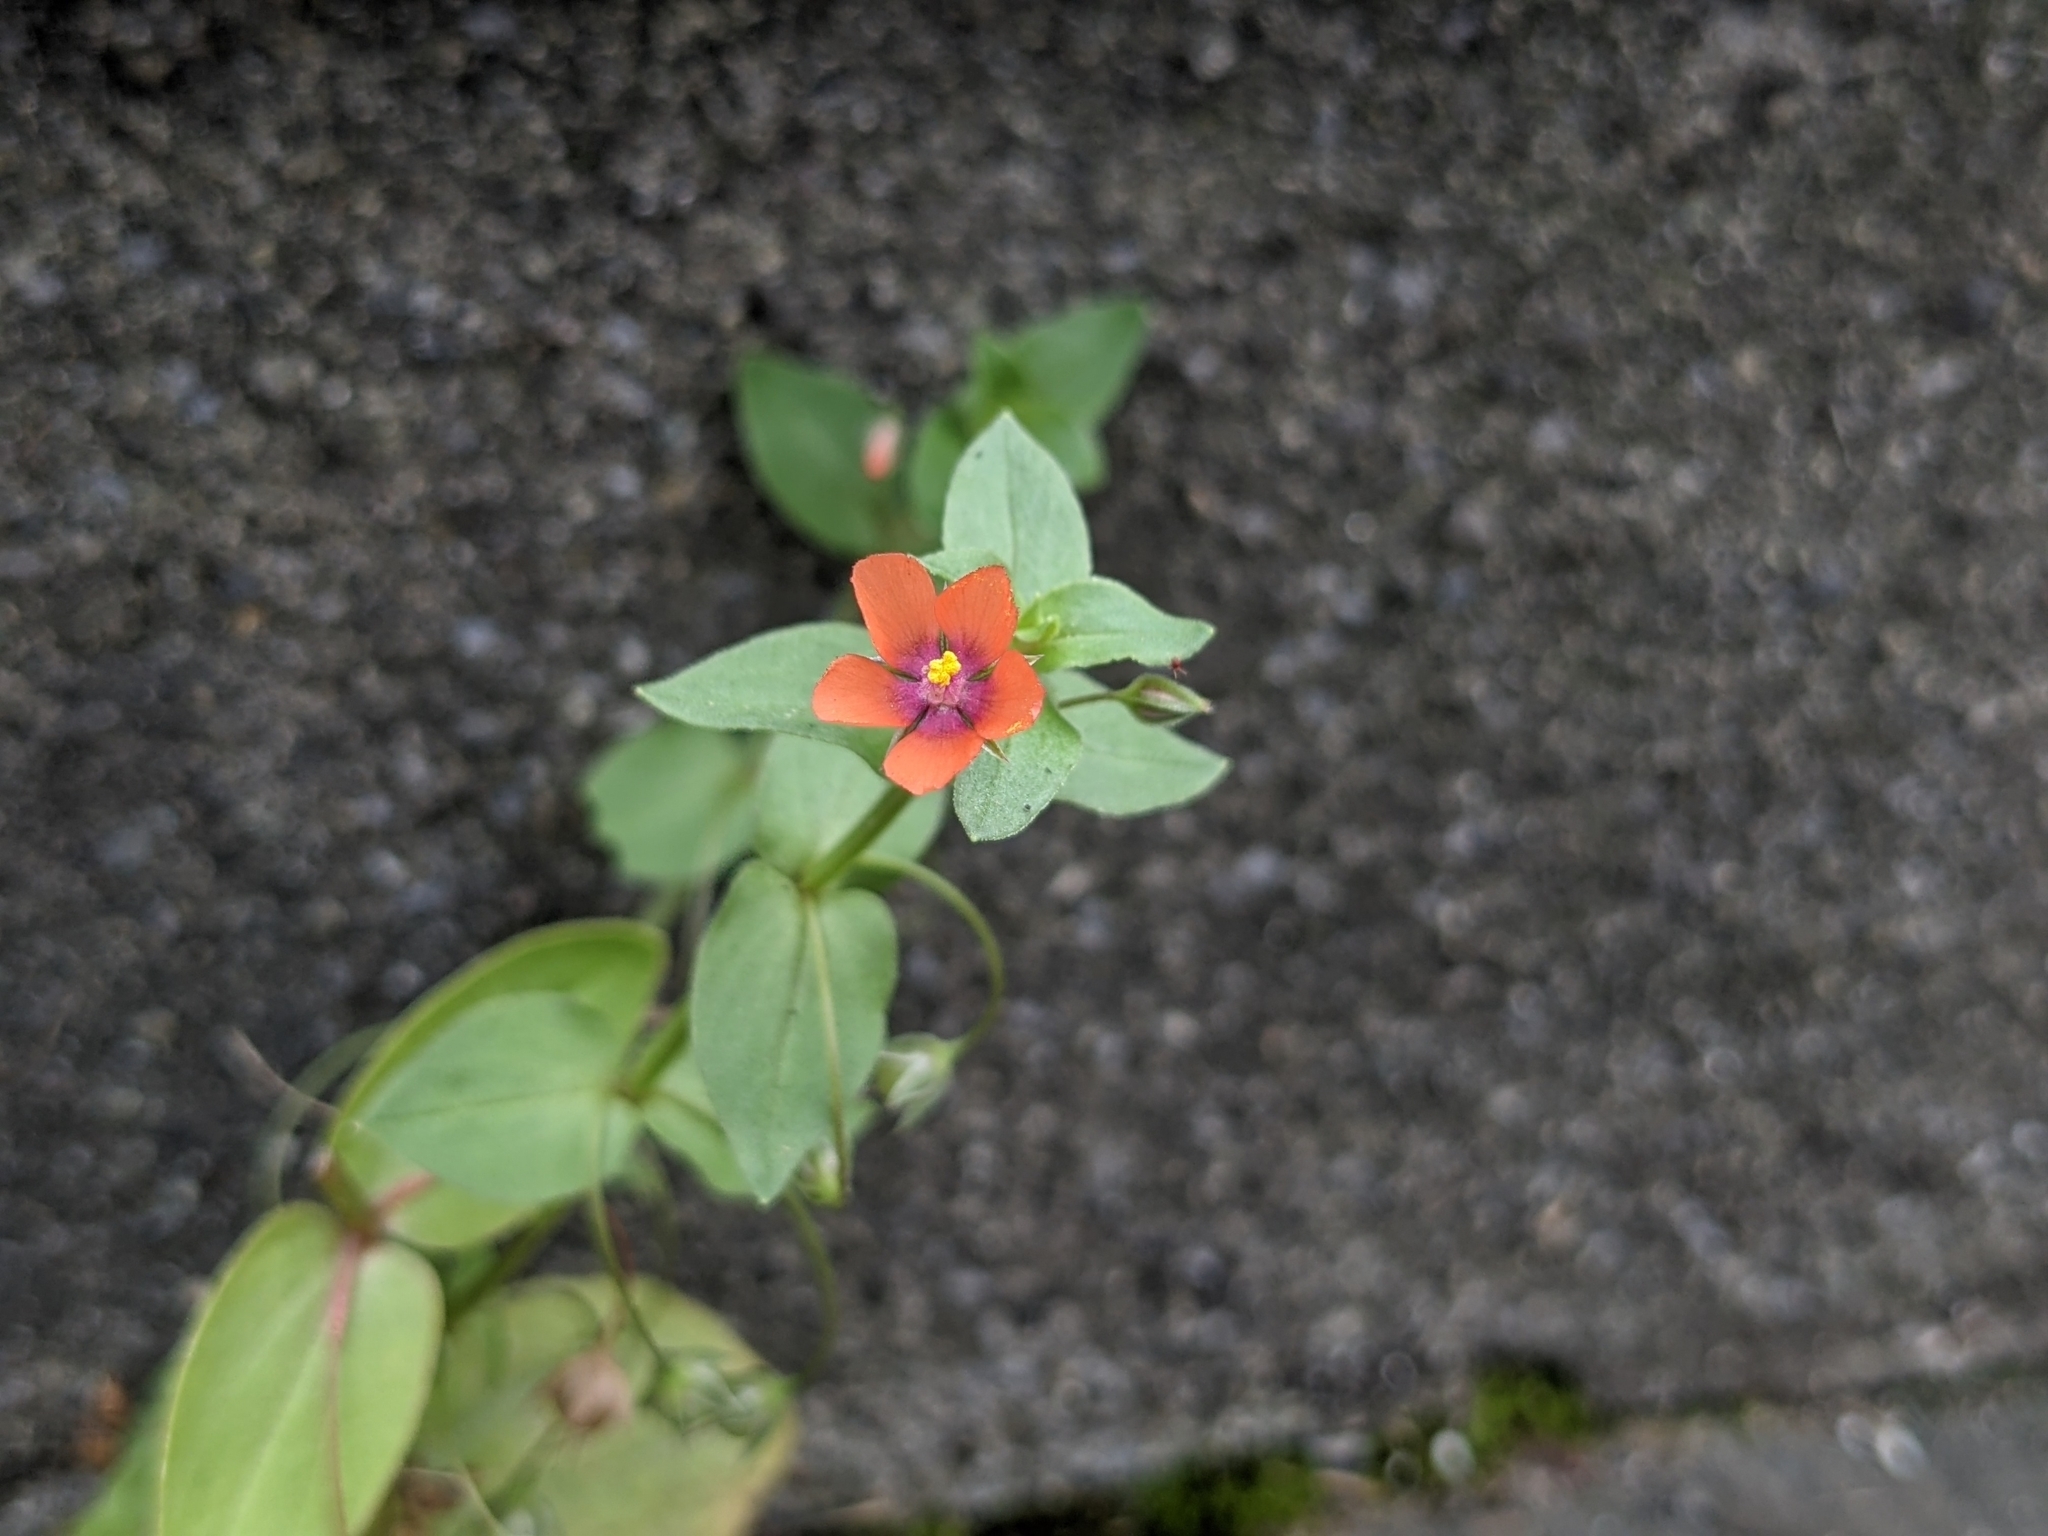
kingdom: Plantae
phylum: Tracheophyta
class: Magnoliopsida
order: Ericales
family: Primulaceae
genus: Lysimachia
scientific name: Lysimachia arvensis
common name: Scarlet pimpernel
